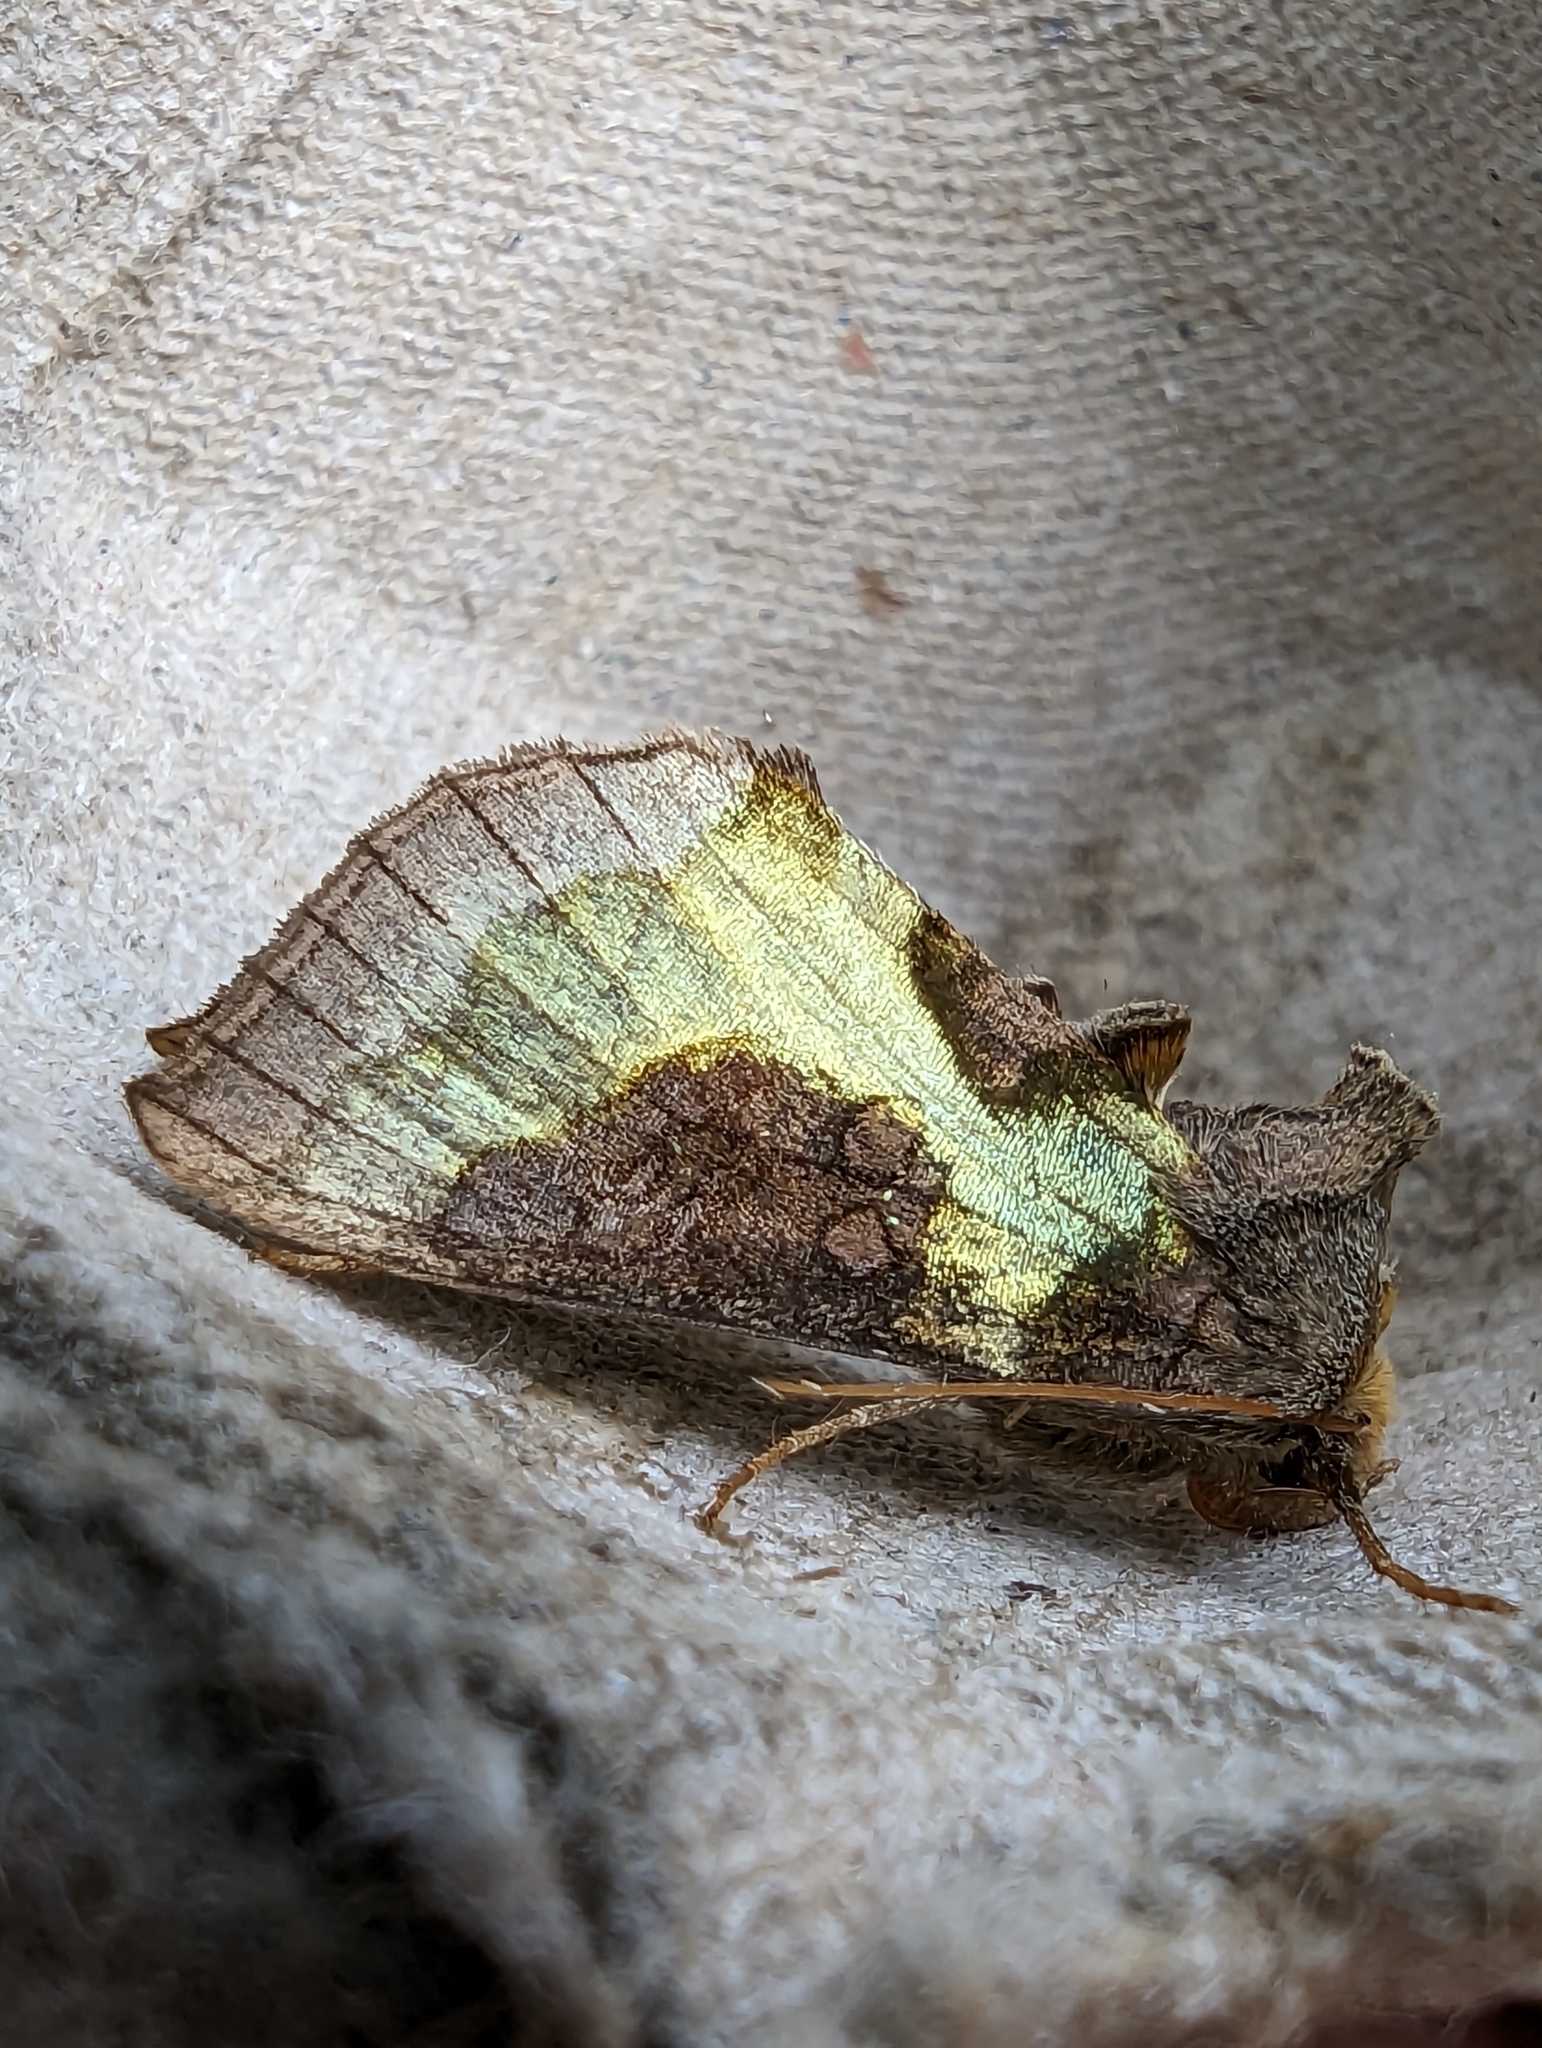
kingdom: Animalia
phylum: Arthropoda
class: Insecta
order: Lepidoptera
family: Noctuidae
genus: Diachrysia
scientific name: Diachrysia chrysitis
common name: Burnished brass
